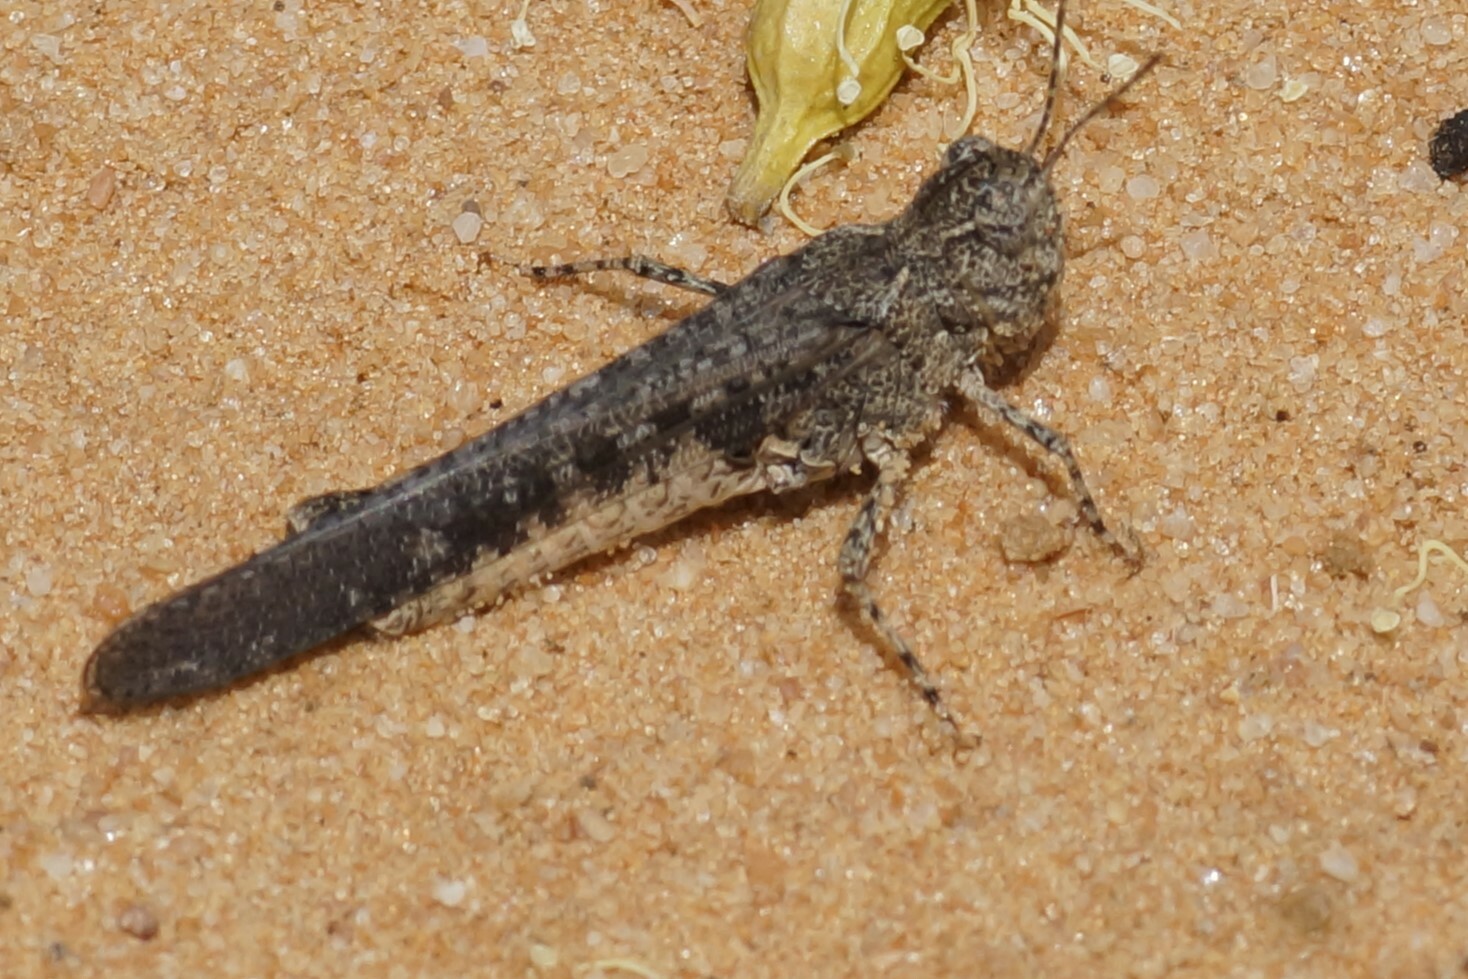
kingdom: Animalia
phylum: Arthropoda
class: Insecta
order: Orthoptera
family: Acrididae
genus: Pycnostictus
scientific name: Pycnostictus seriatus
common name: Common bandwing
